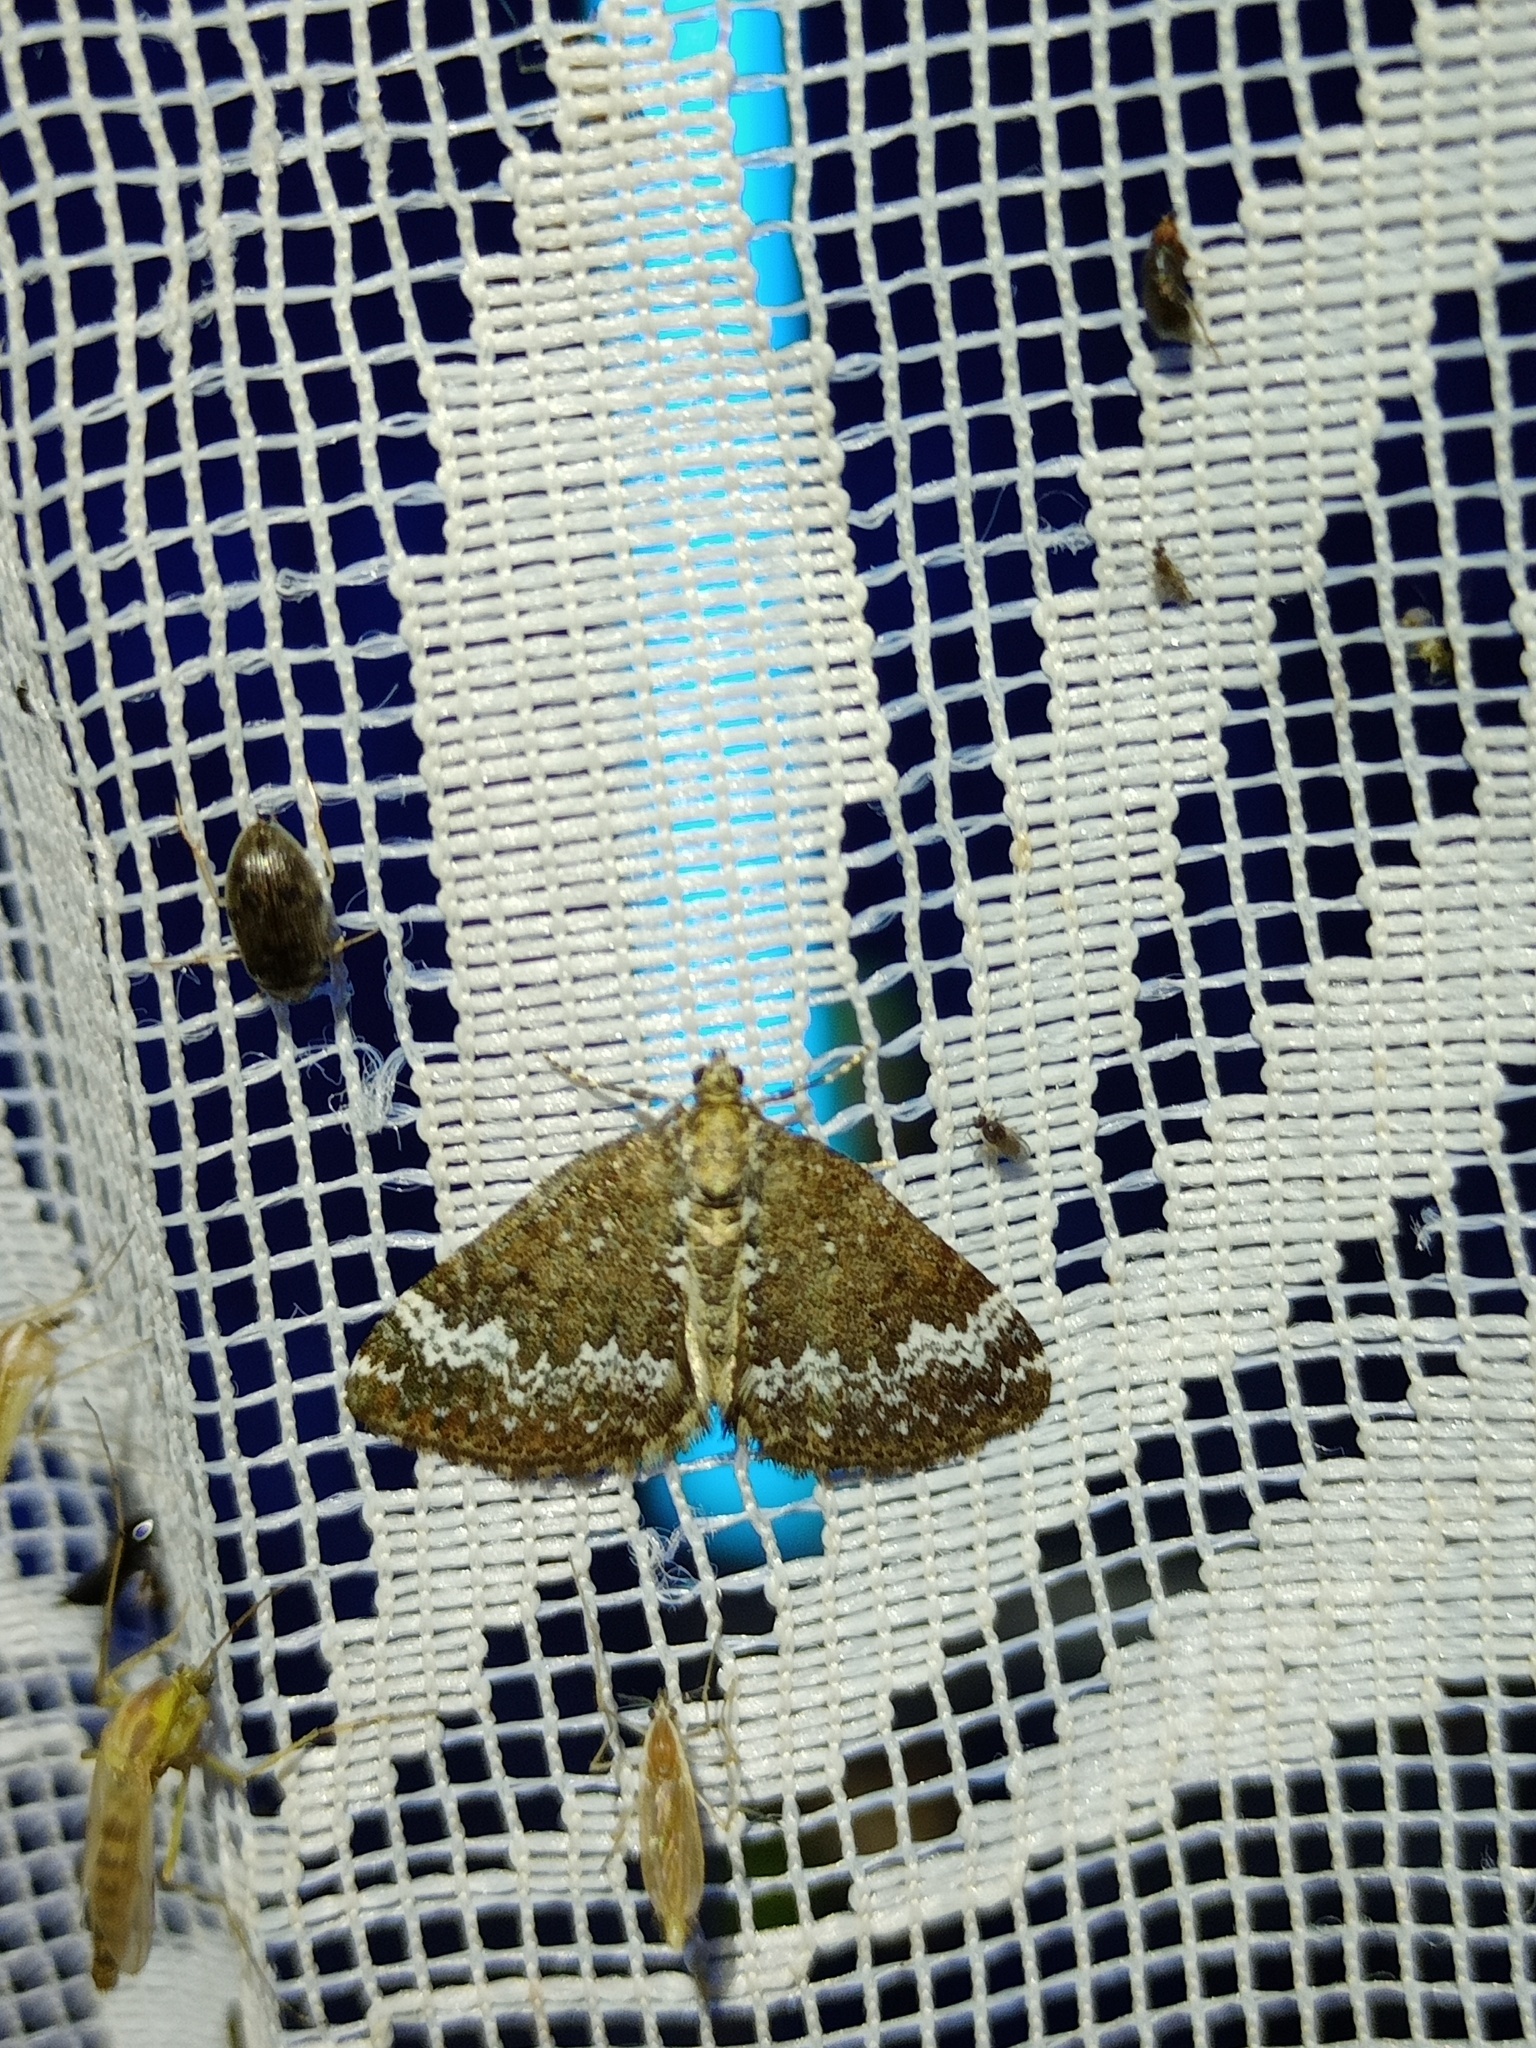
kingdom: Animalia
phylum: Arthropoda
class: Insecta
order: Lepidoptera
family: Geometridae
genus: Perizoma
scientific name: Perizoma alchemillata
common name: Small rivulet
